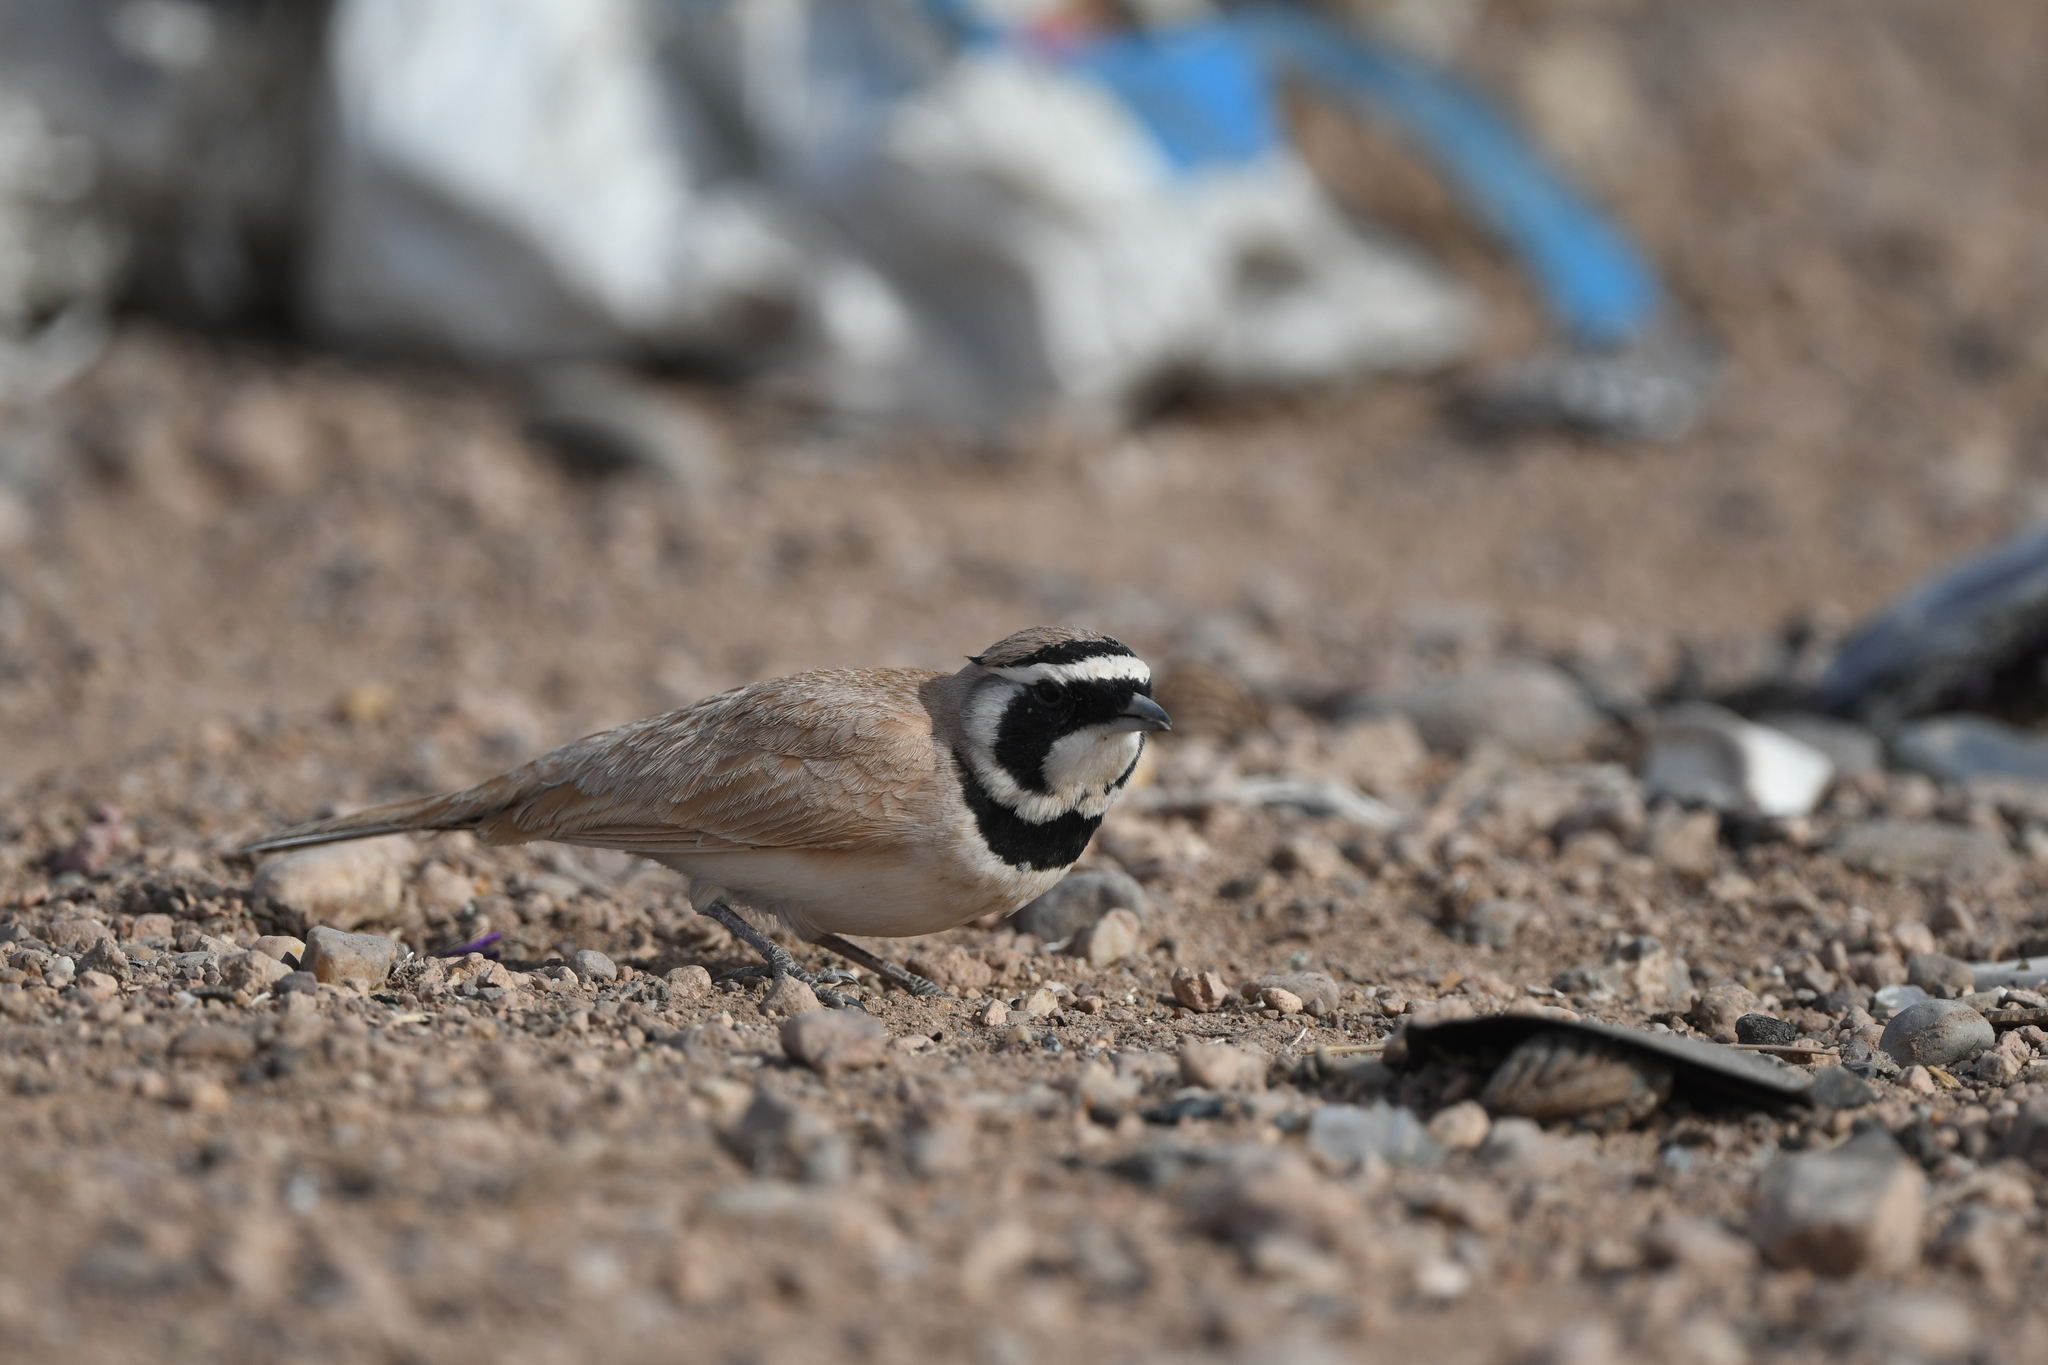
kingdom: Animalia
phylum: Chordata
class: Aves
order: Passeriformes
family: Alaudidae
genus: Eremophila
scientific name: Eremophila bilopha
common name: Temminck's lark
